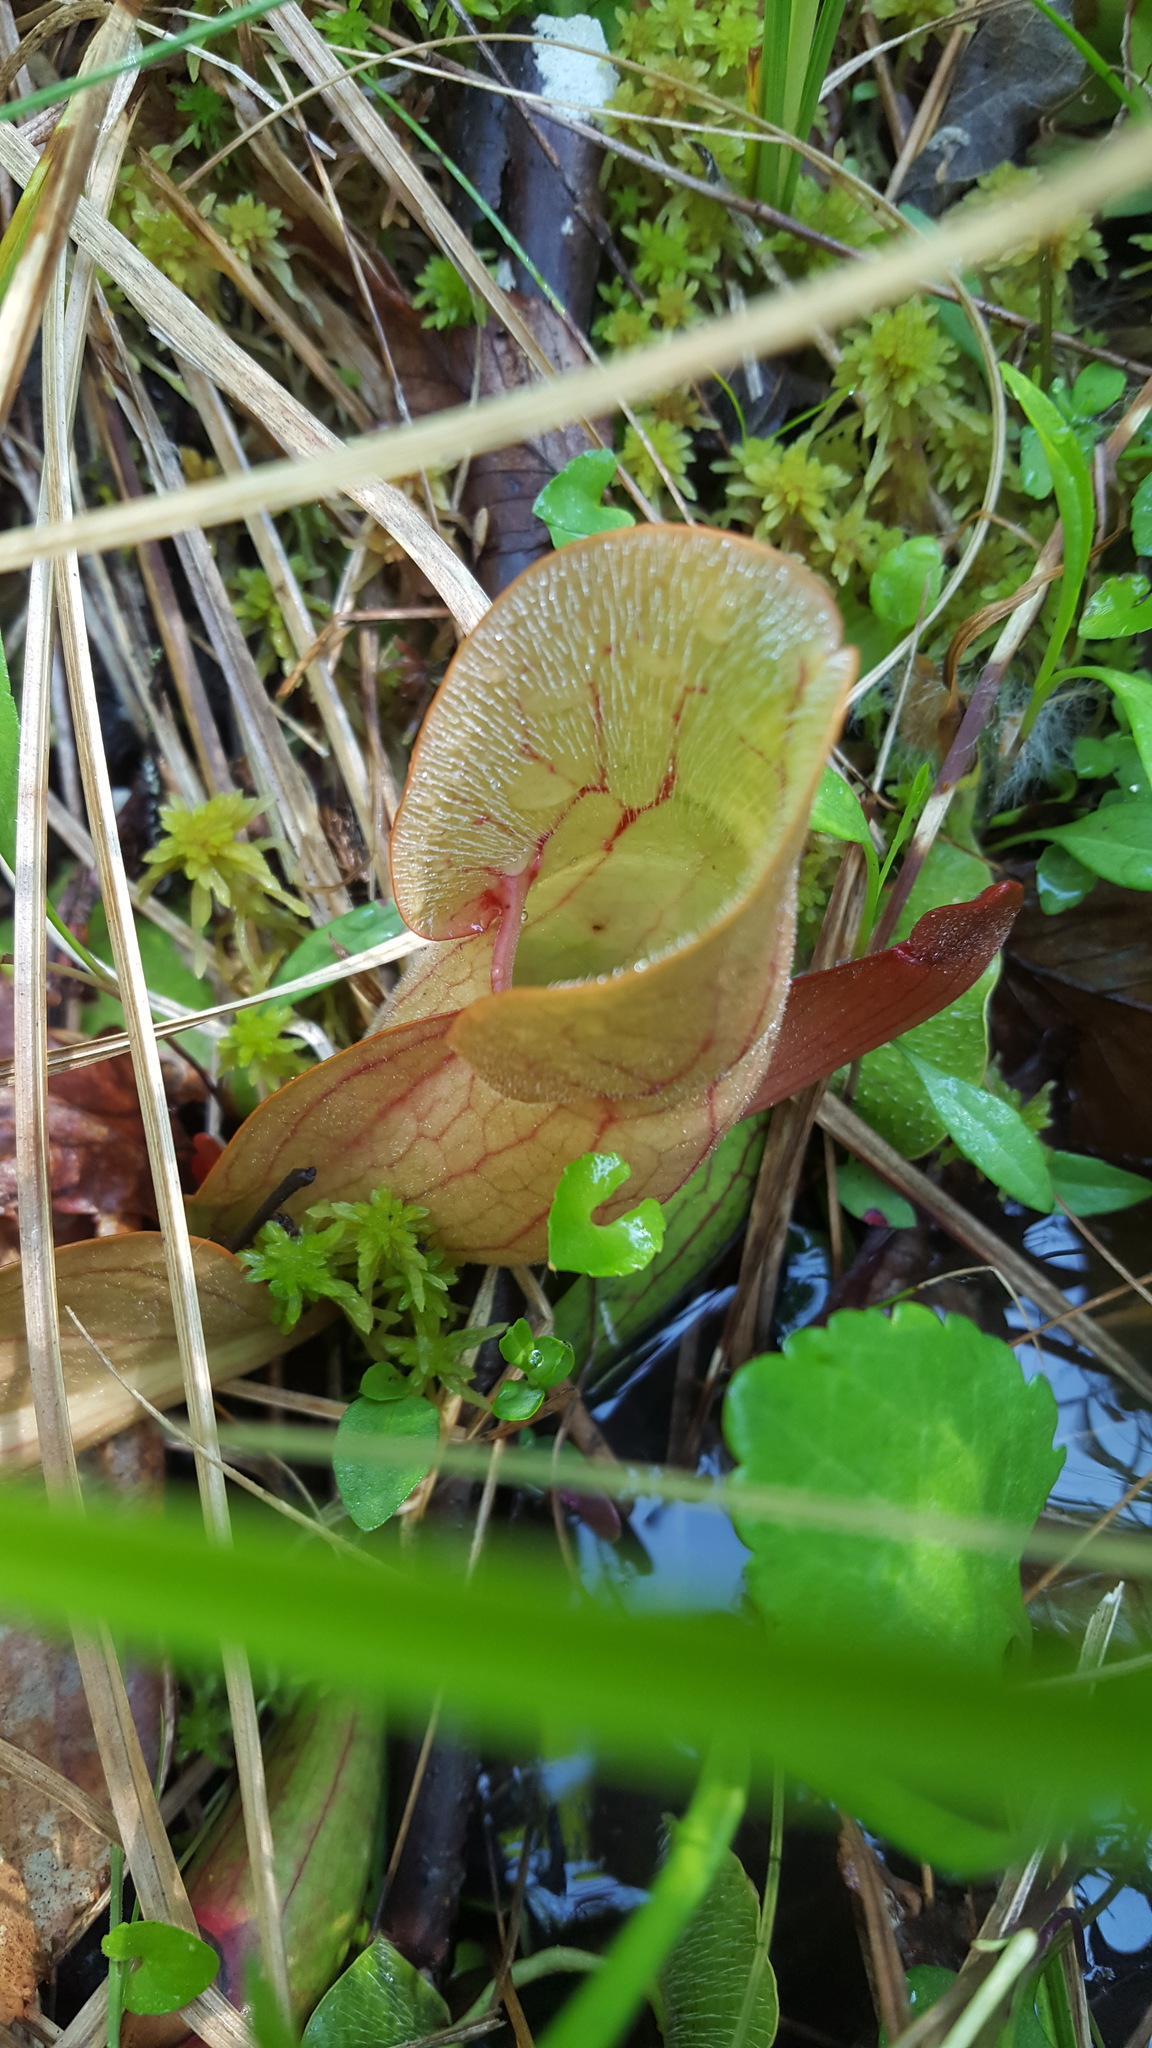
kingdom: Plantae
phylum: Tracheophyta
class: Magnoliopsida
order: Ericales
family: Sarraceniaceae
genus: Sarracenia
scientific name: Sarracenia purpurea
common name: Pitcherplant
